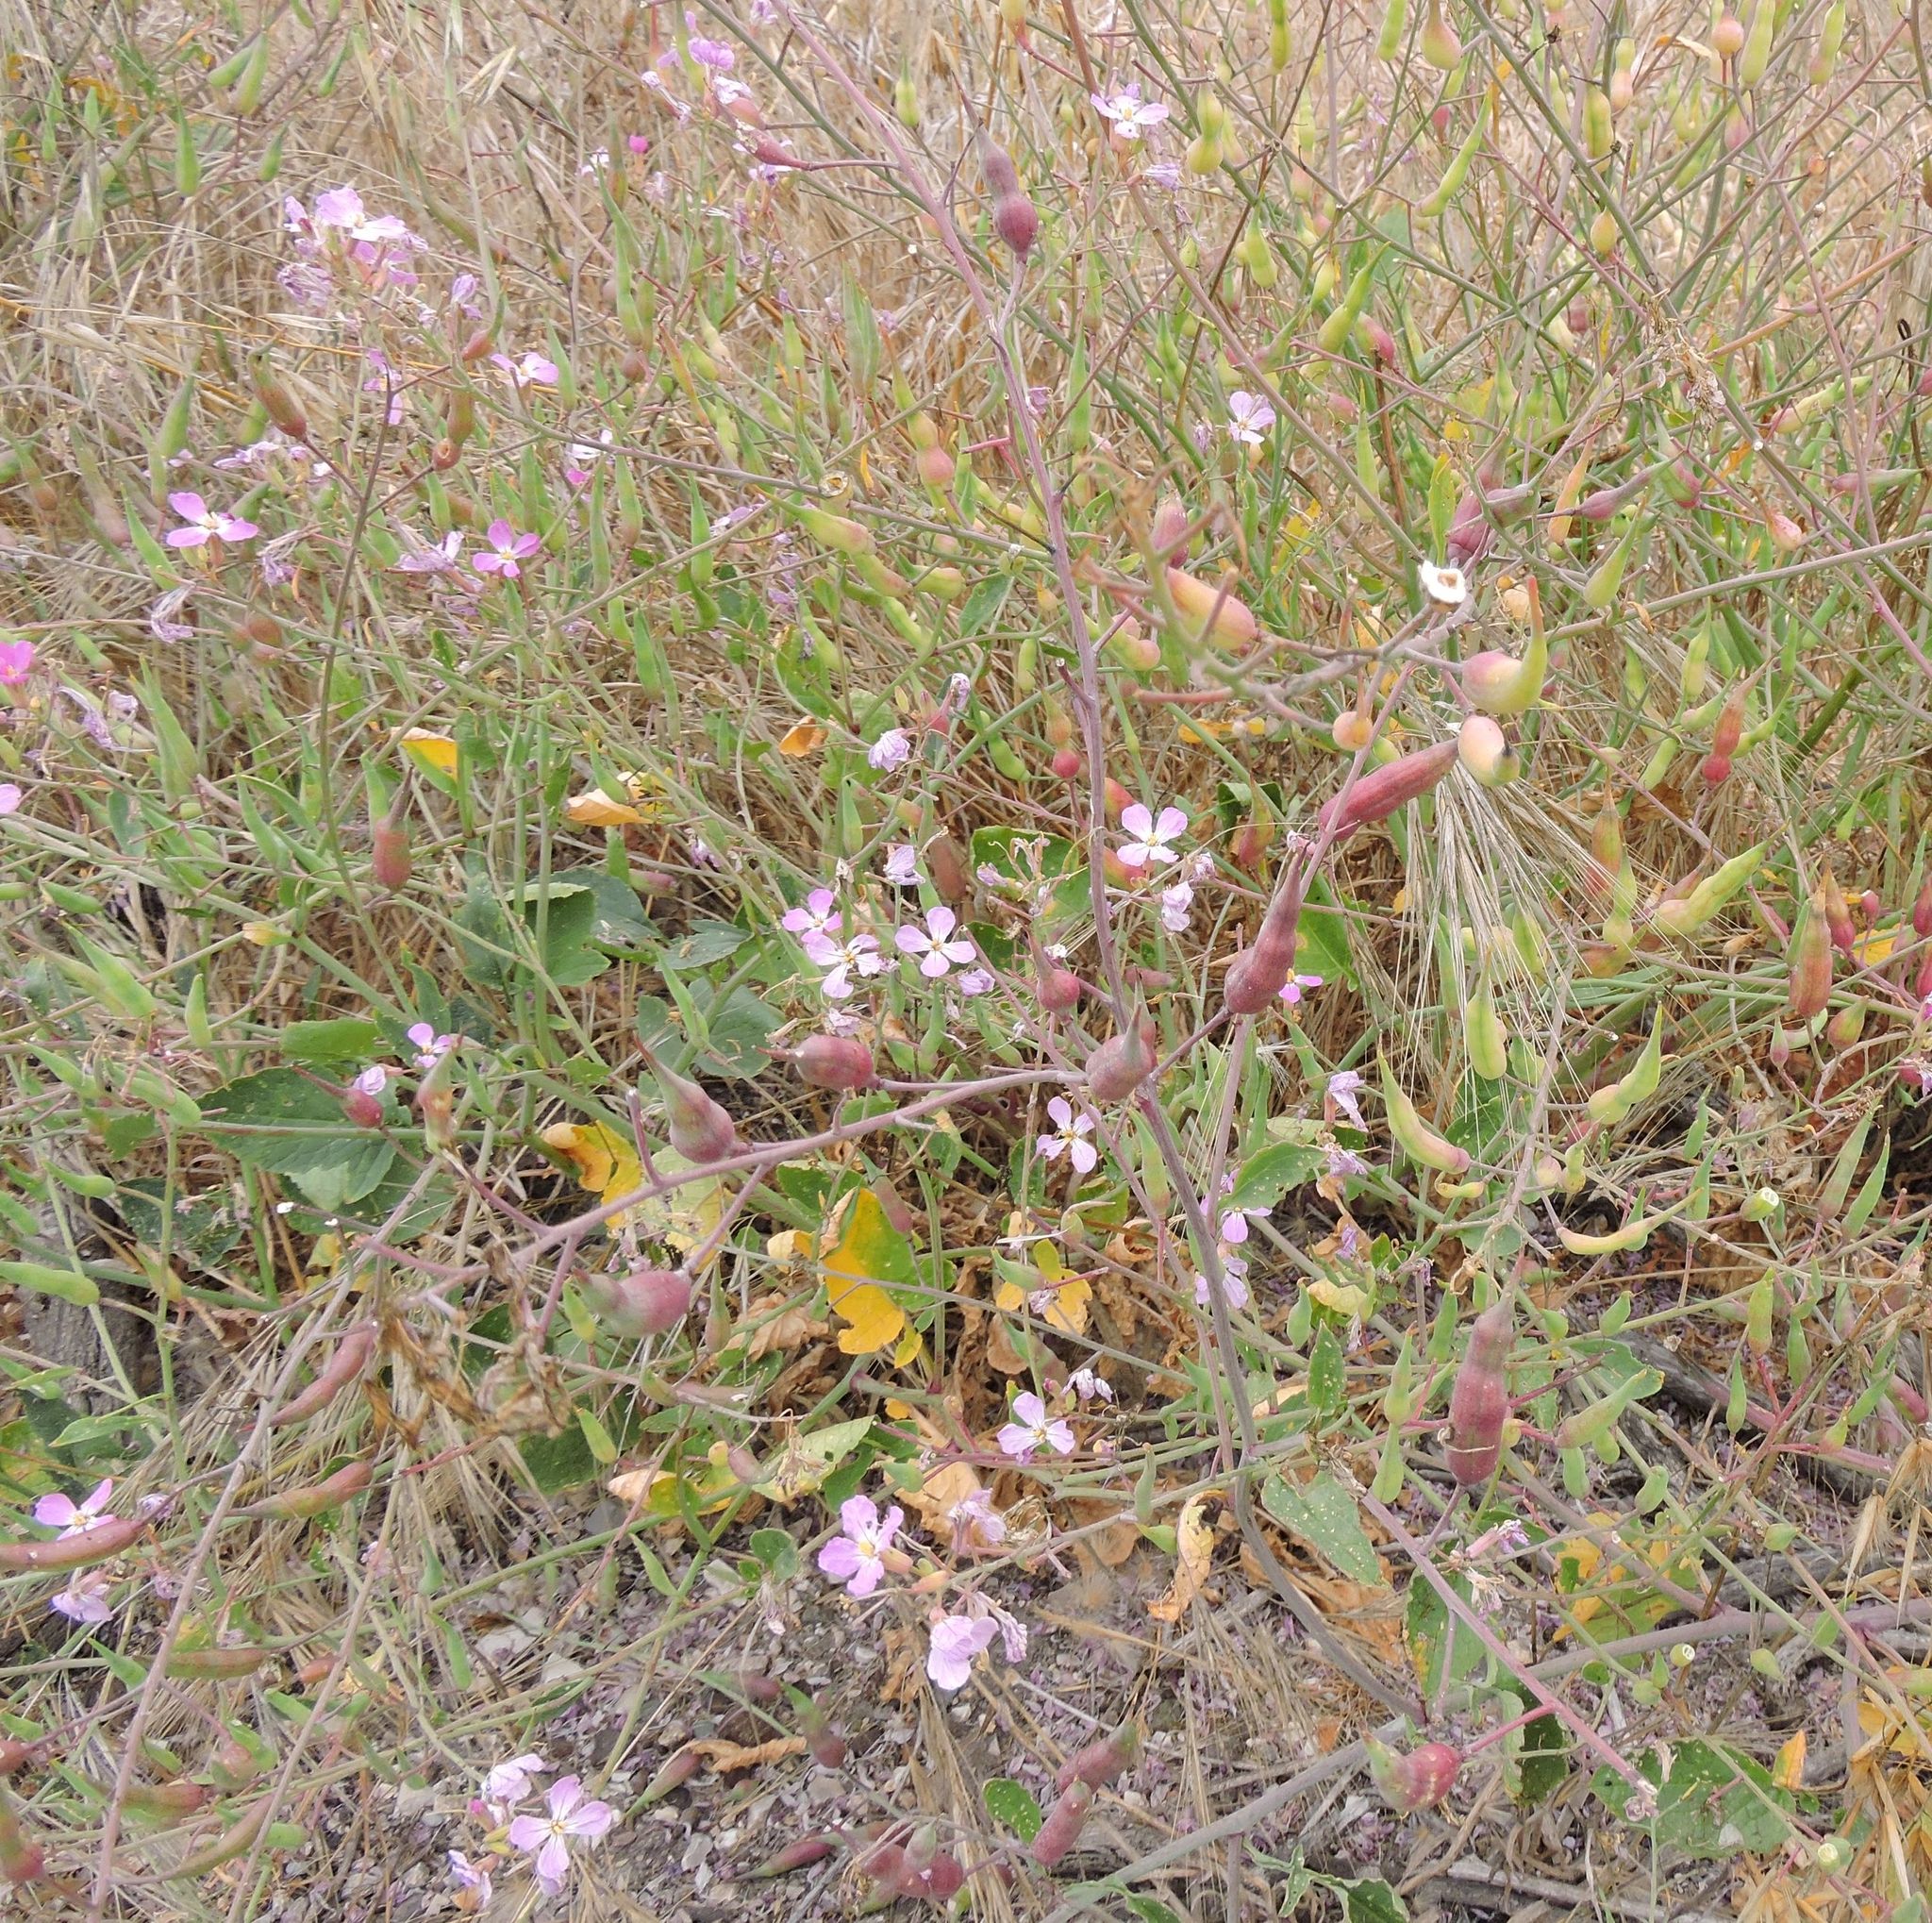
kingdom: Plantae
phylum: Tracheophyta
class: Magnoliopsida
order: Brassicales
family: Brassicaceae
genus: Raphanus
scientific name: Raphanus sativus
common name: Cultivated radish
